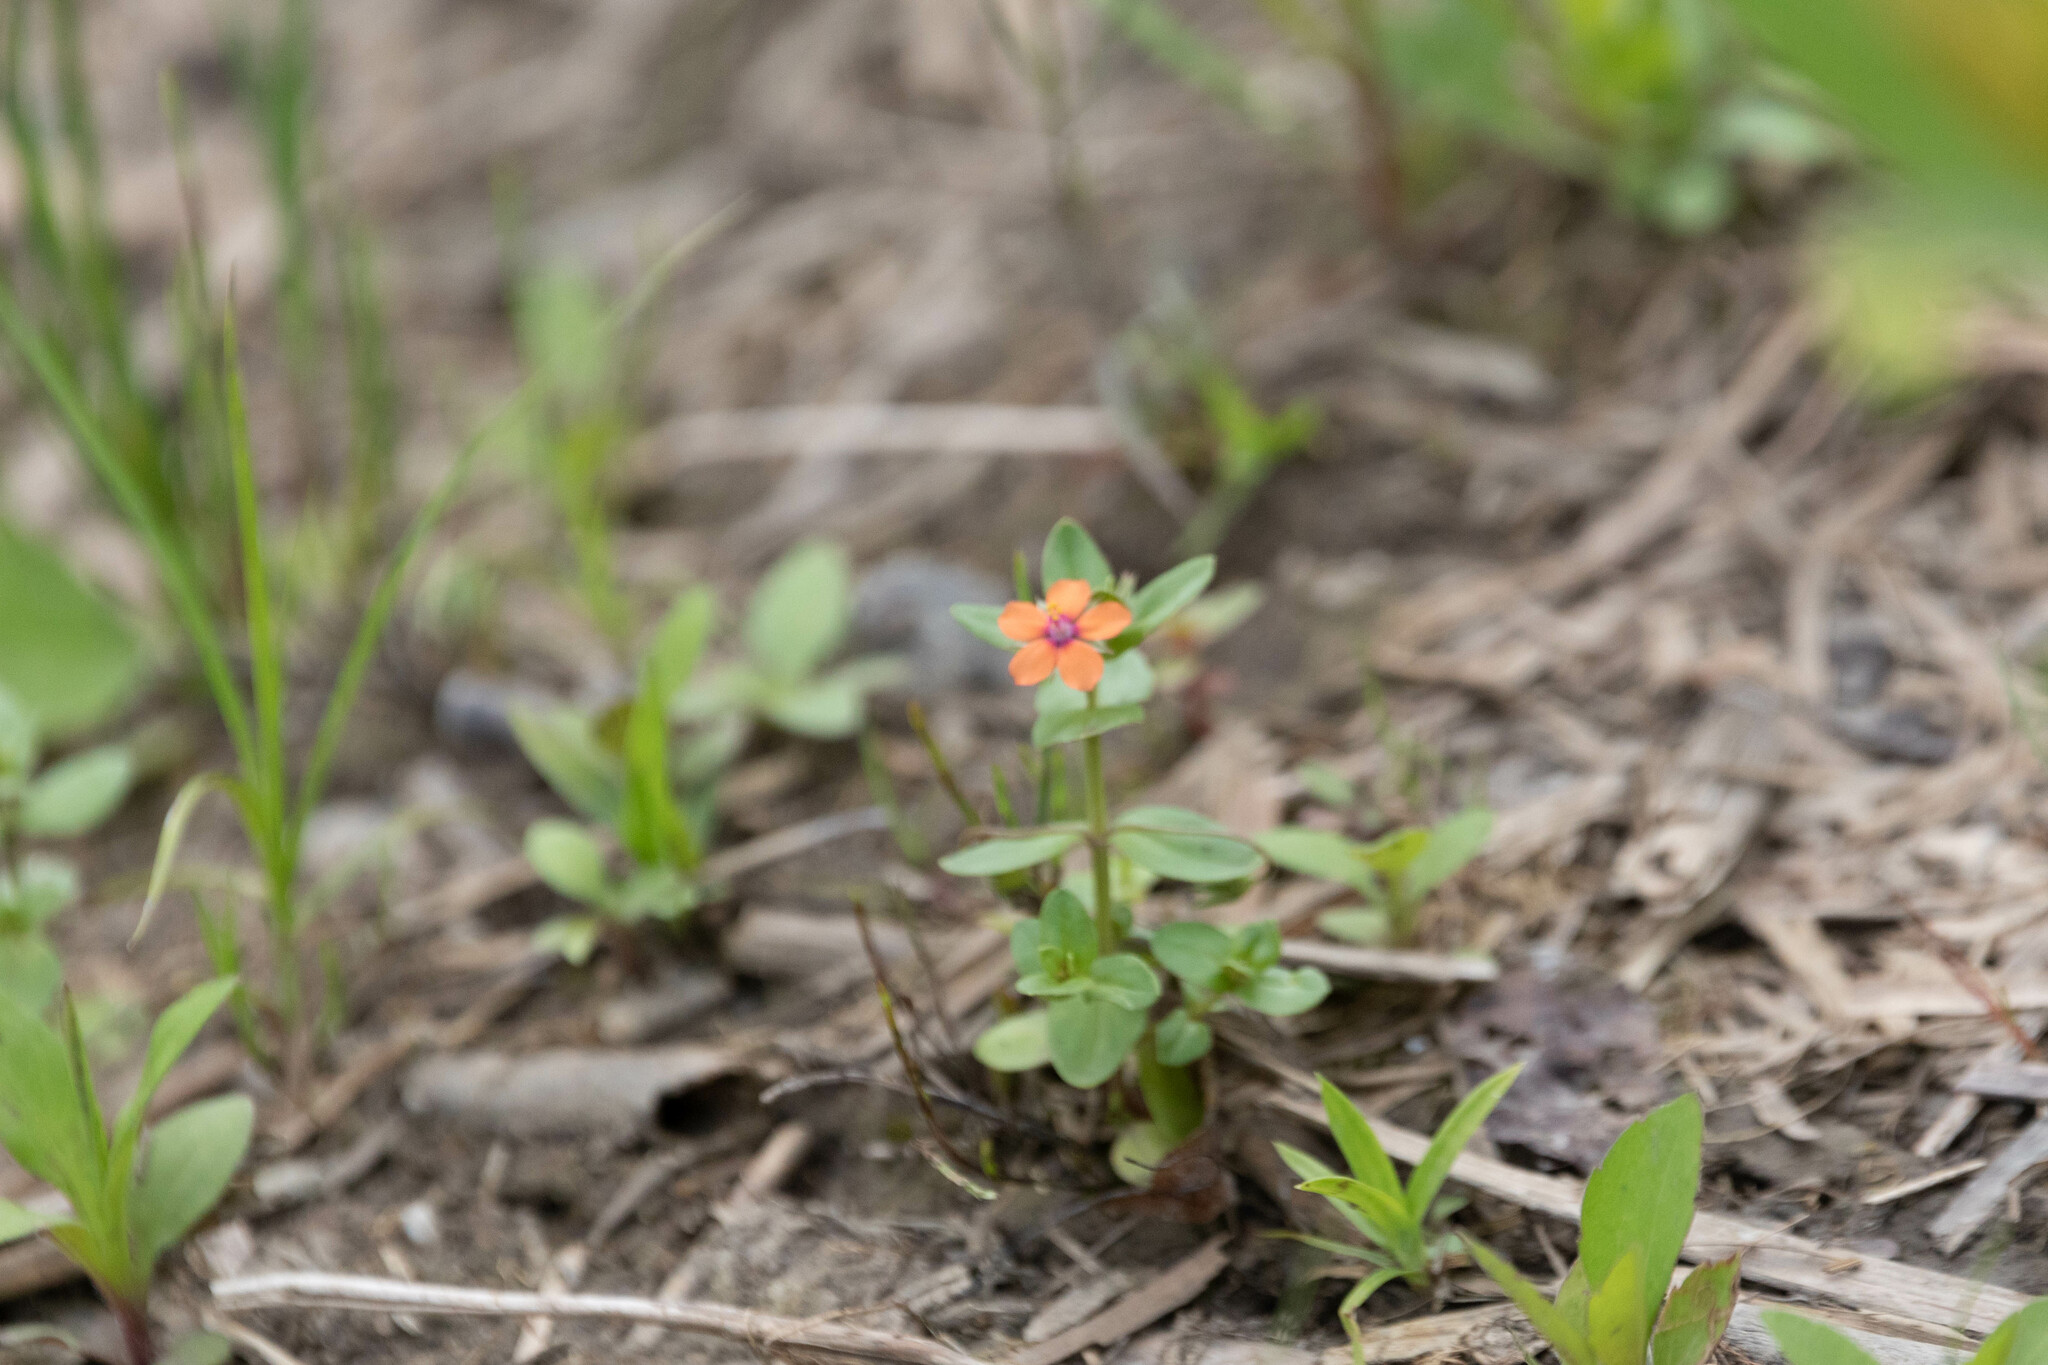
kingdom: Plantae
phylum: Tracheophyta
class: Magnoliopsida
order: Ericales
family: Primulaceae
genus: Lysimachia
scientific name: Lysimachia arvensis
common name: Scarlet pimpernel
